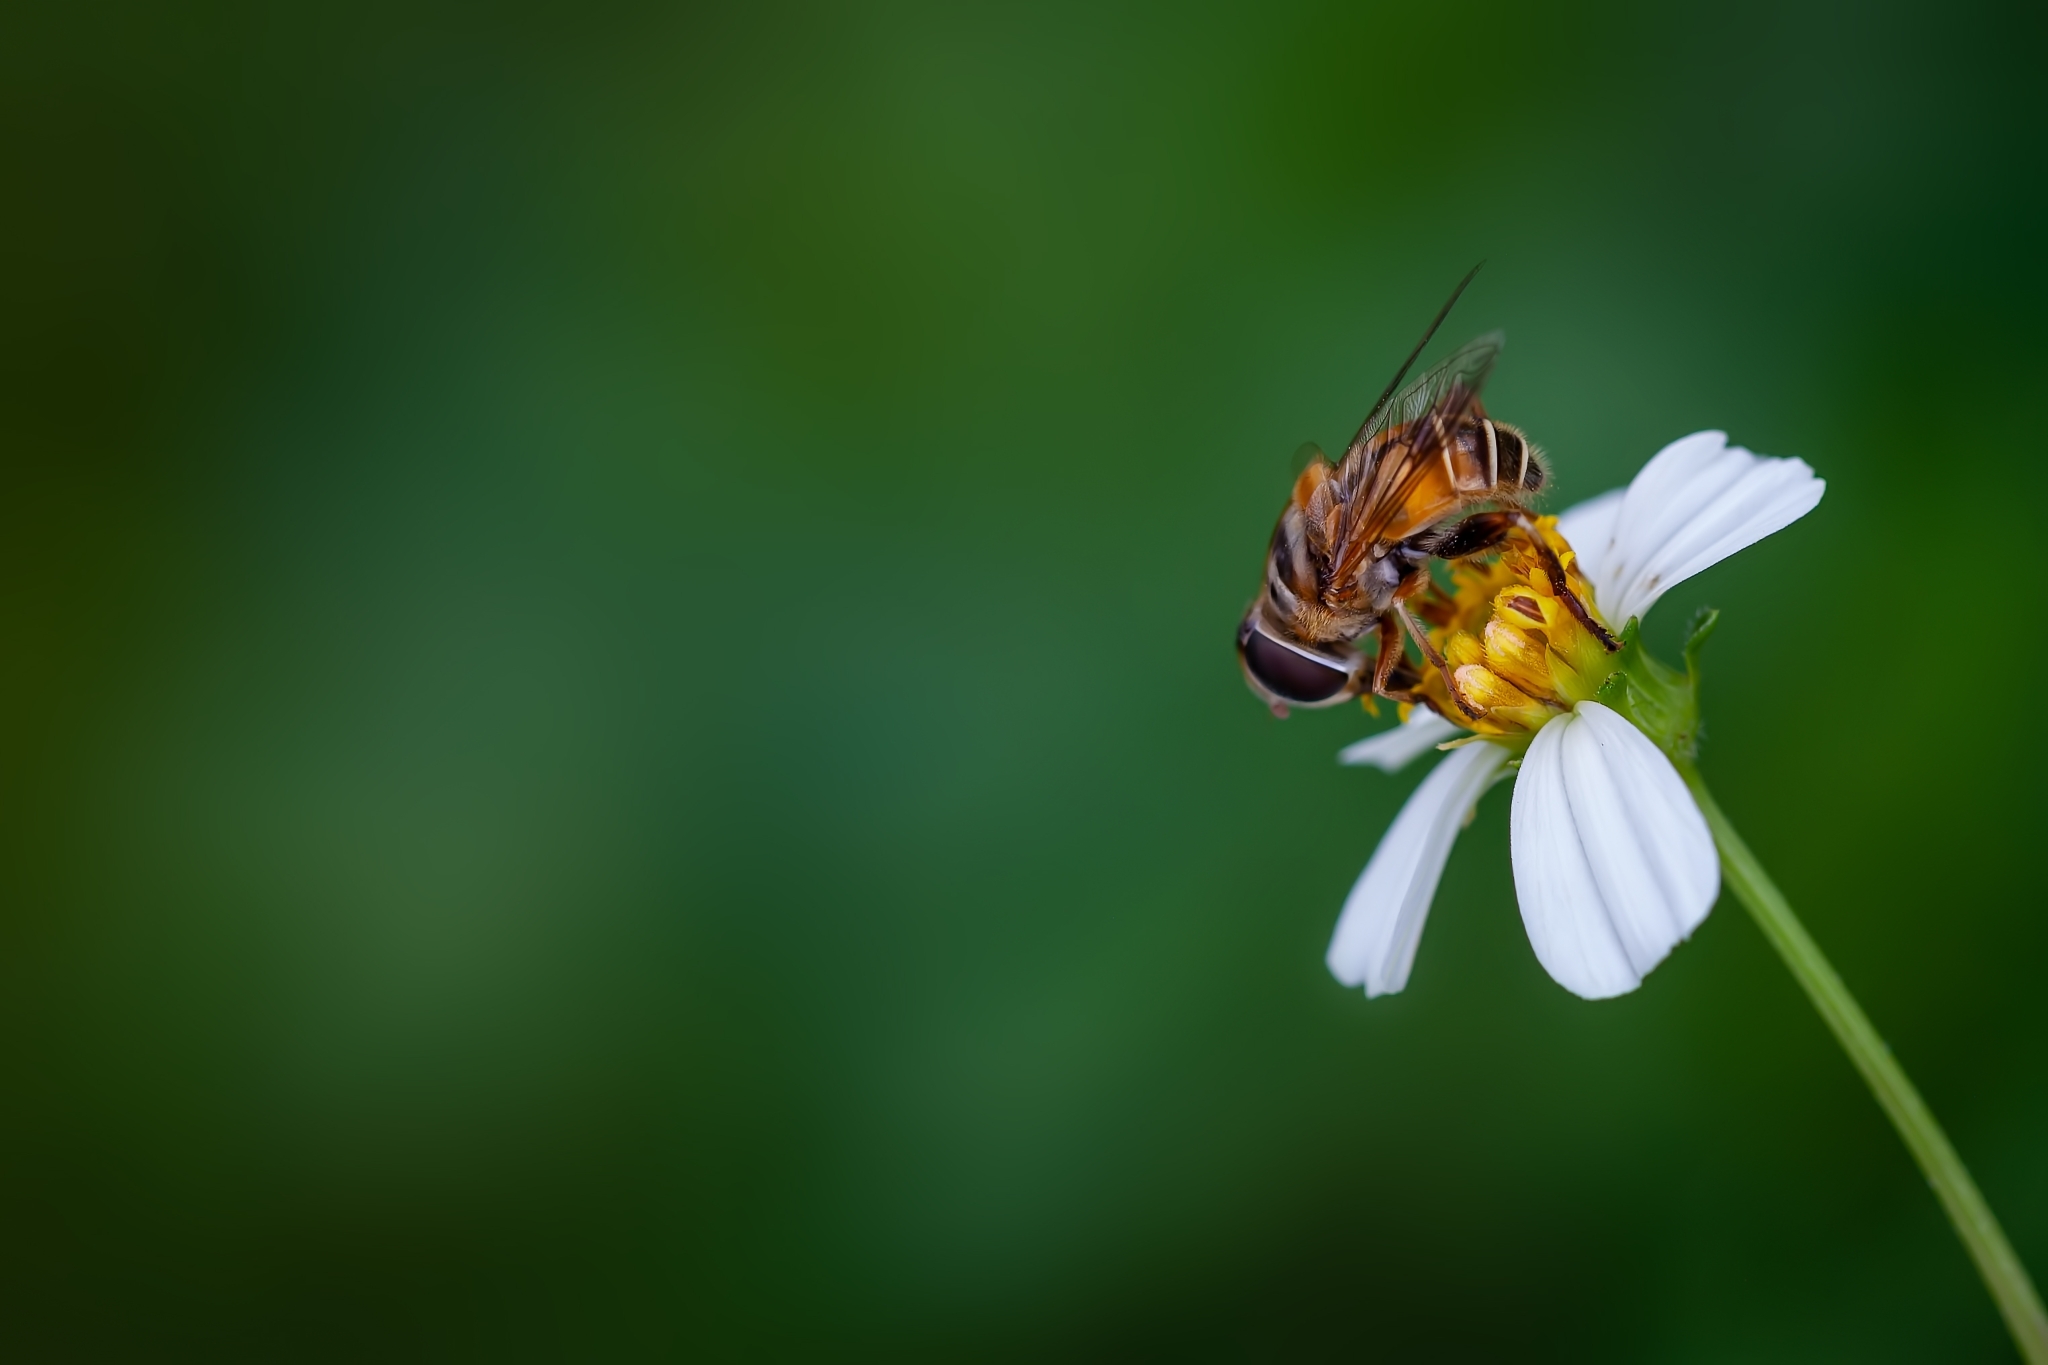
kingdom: Animalia
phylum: Arthropoda
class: Insecta
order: Diptera
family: Syrphidae
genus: Palpada
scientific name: Palpada vinetorum
